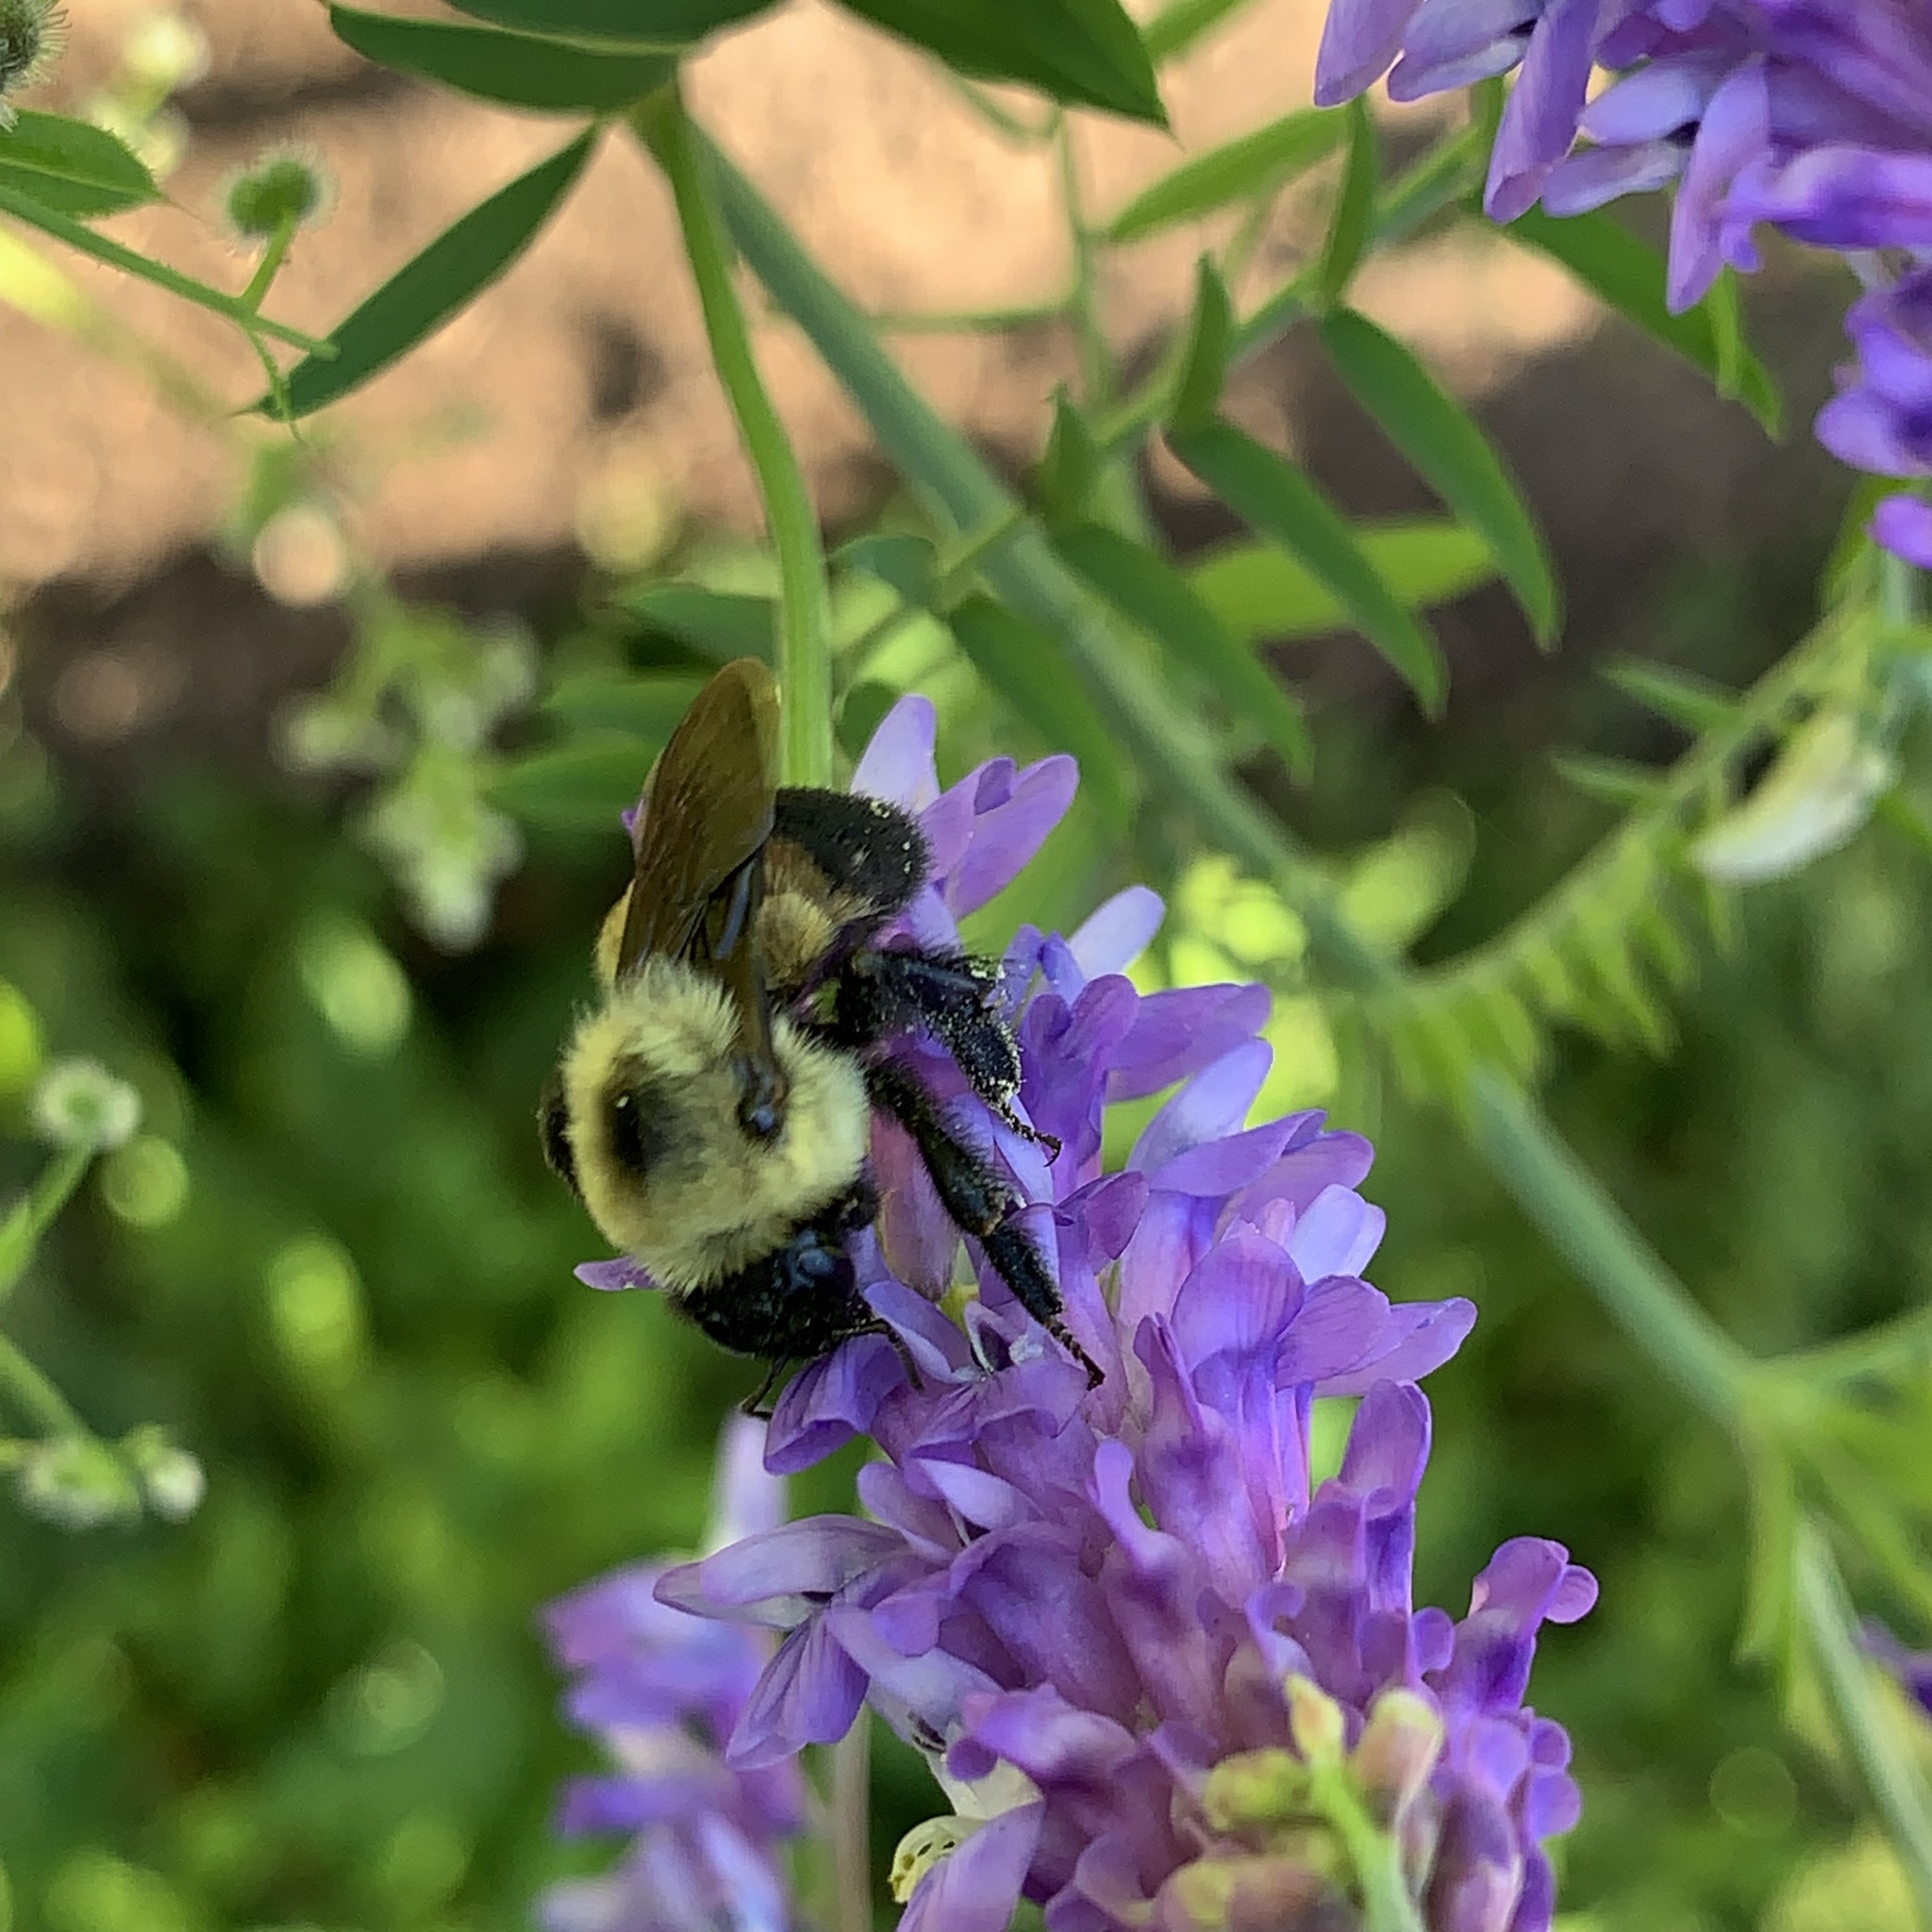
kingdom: Animalia
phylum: Arthropoda
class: Insecta
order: Hymenoptera
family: Apidae
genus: Bombus
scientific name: Bombus griseocollis
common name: Brown-belted bumble bee
